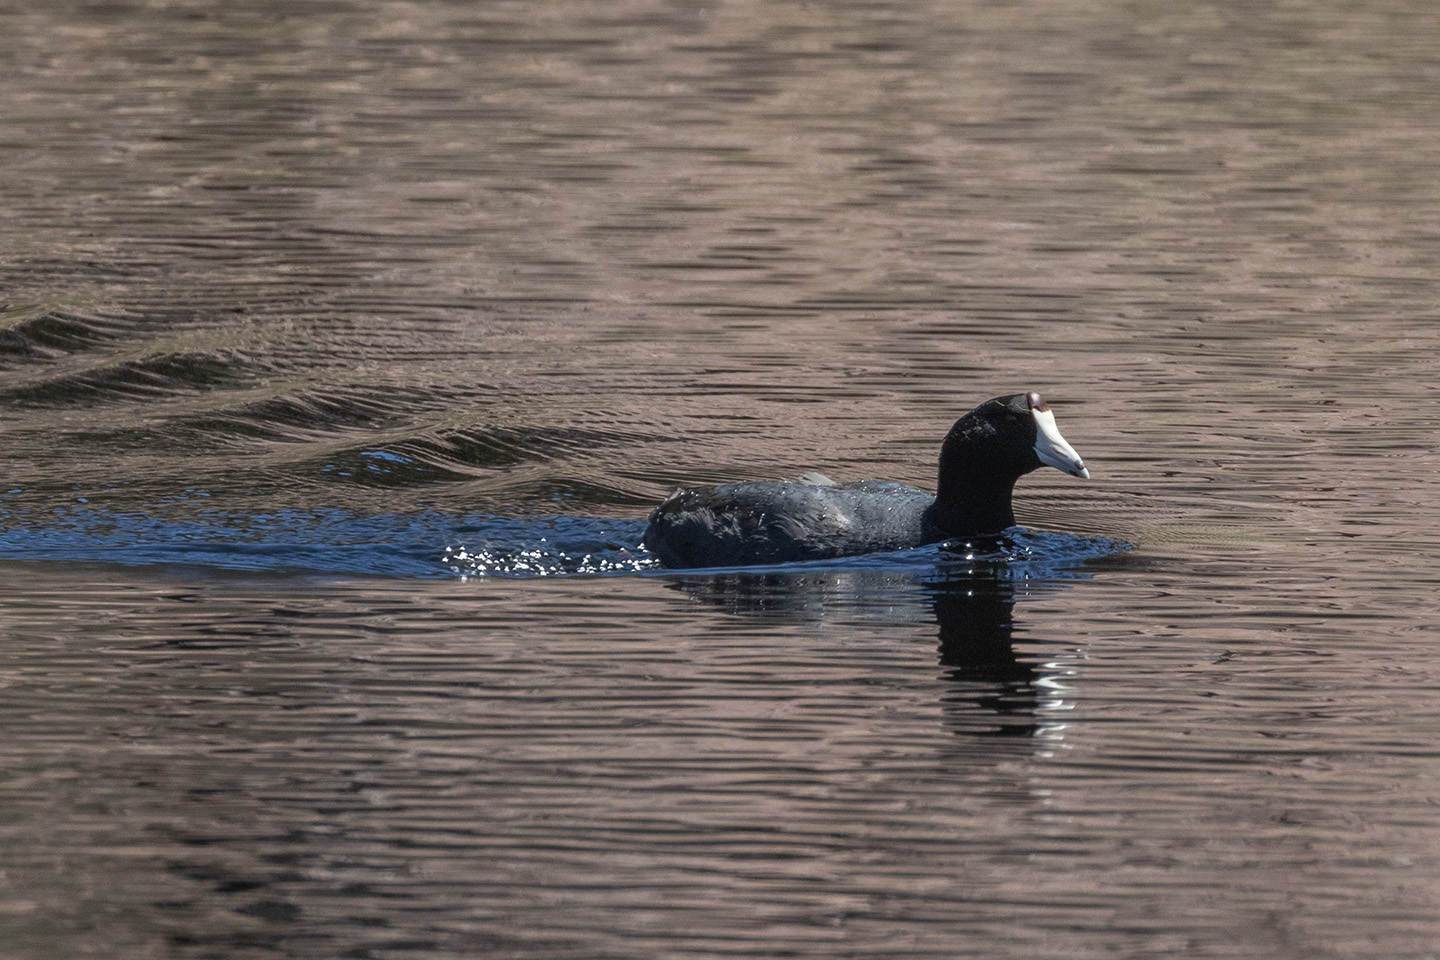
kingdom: Animalia
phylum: Chordata
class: Aves
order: Gruiformes
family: Rallidae
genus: Fulica
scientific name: Fulica americana
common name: American coot
